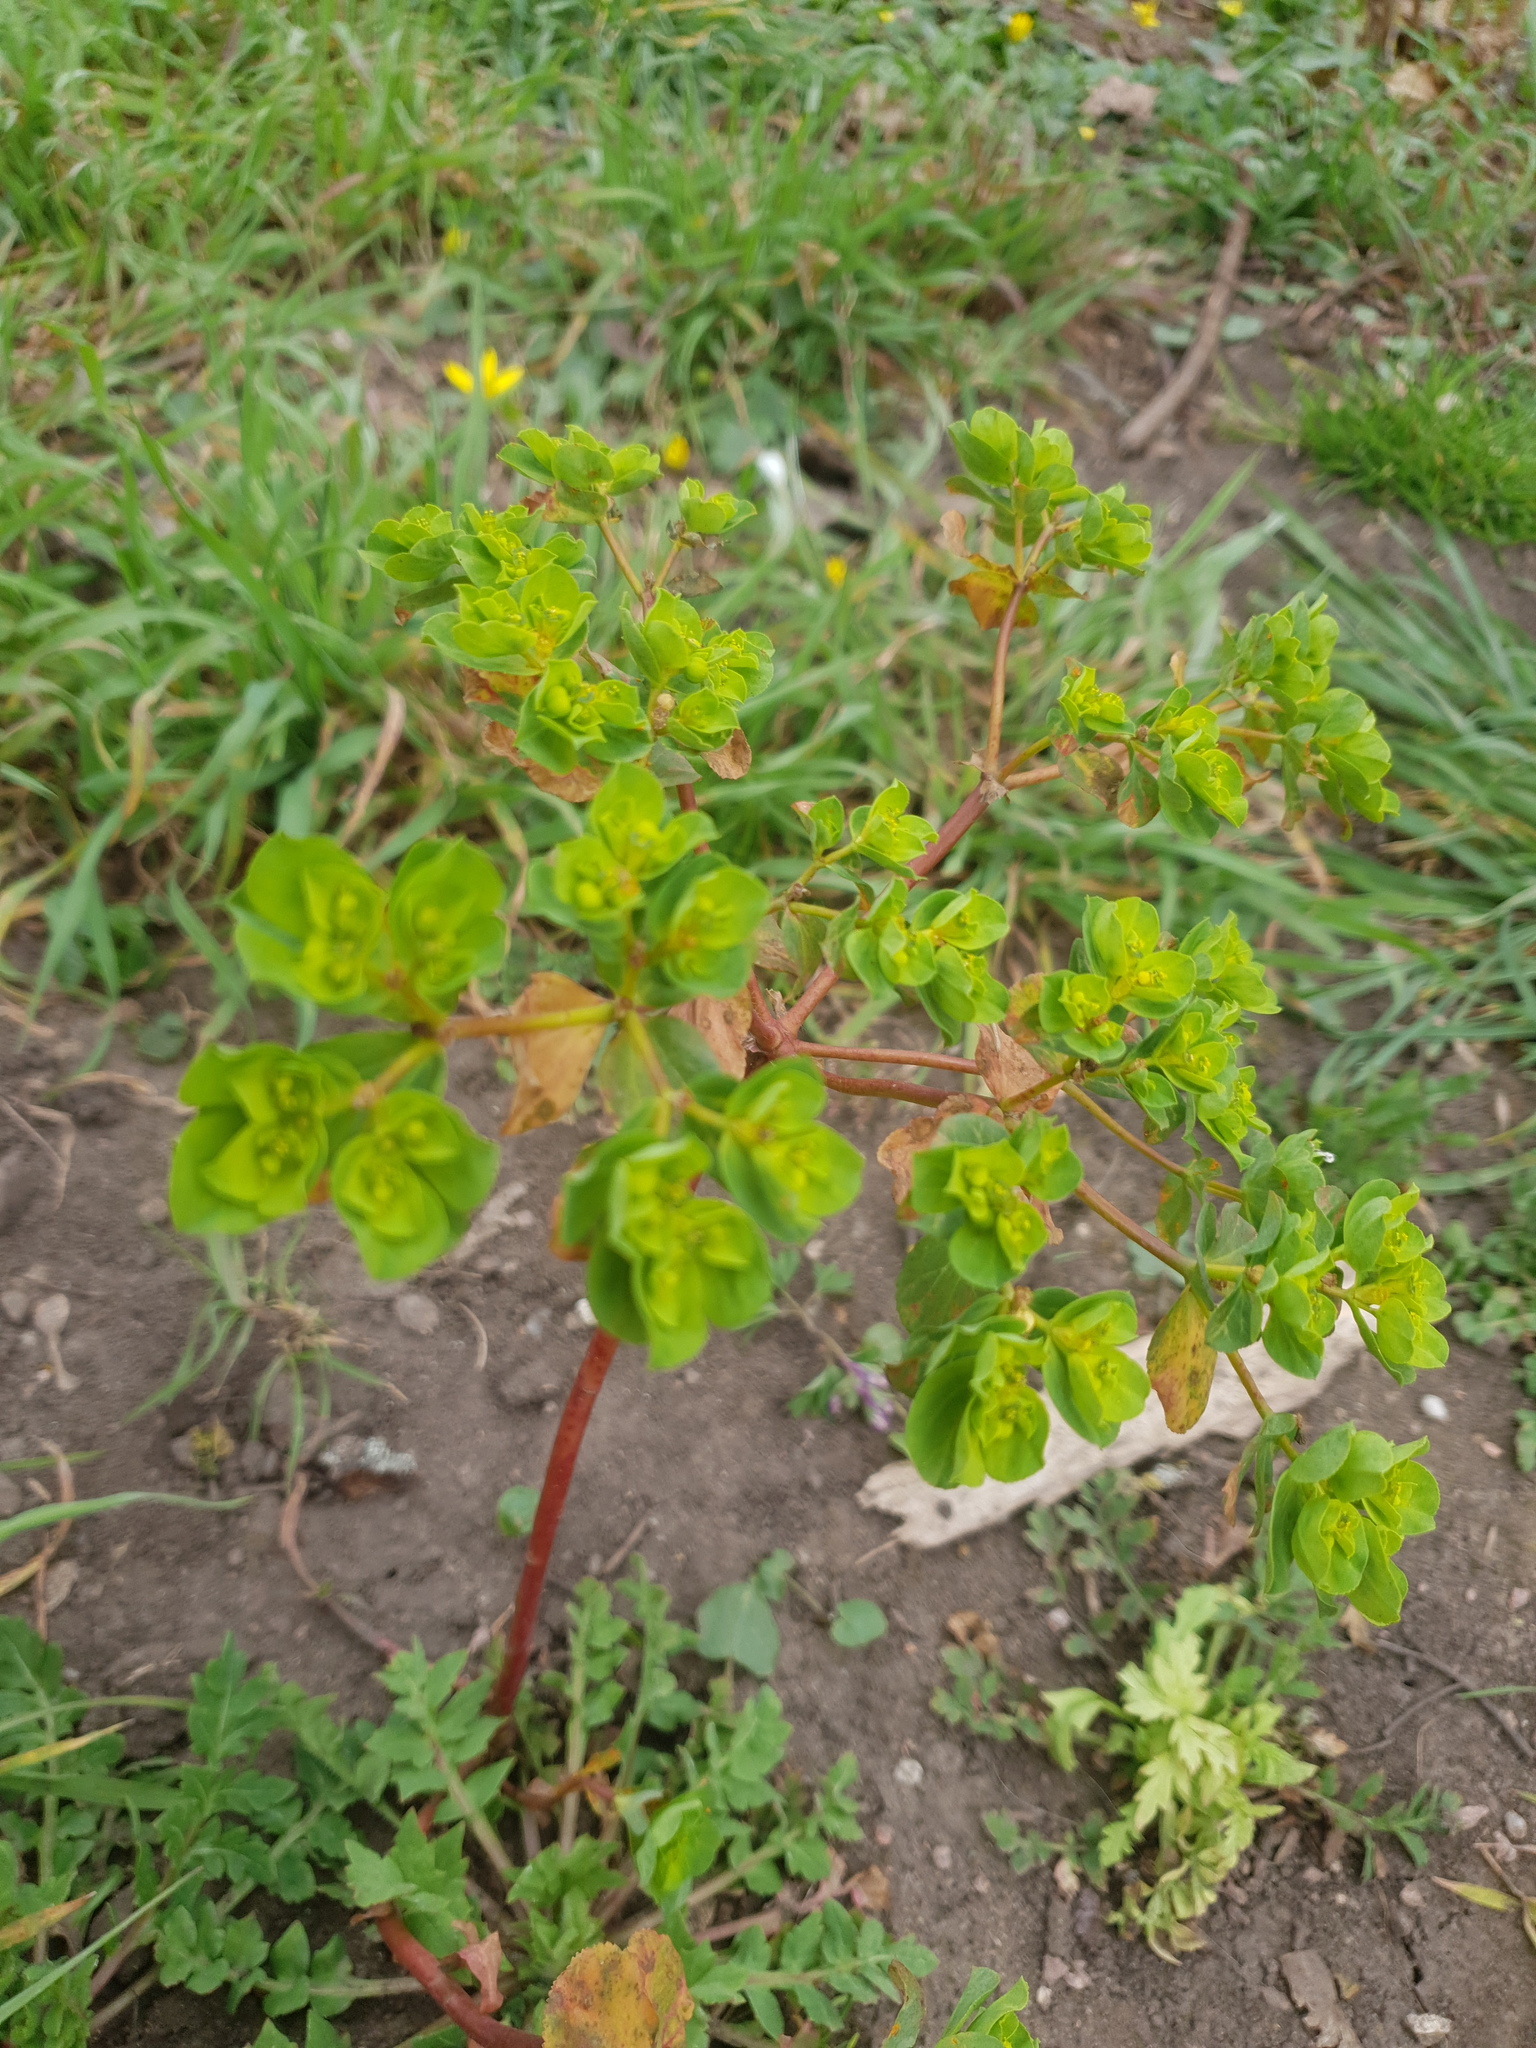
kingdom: Plantae
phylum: Tracheophyta
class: Magnoliopsida
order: Malpighiales
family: Euphorbiaceae
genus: Euphorbia
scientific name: Euphorbia helioscopia
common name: Sun spurge
